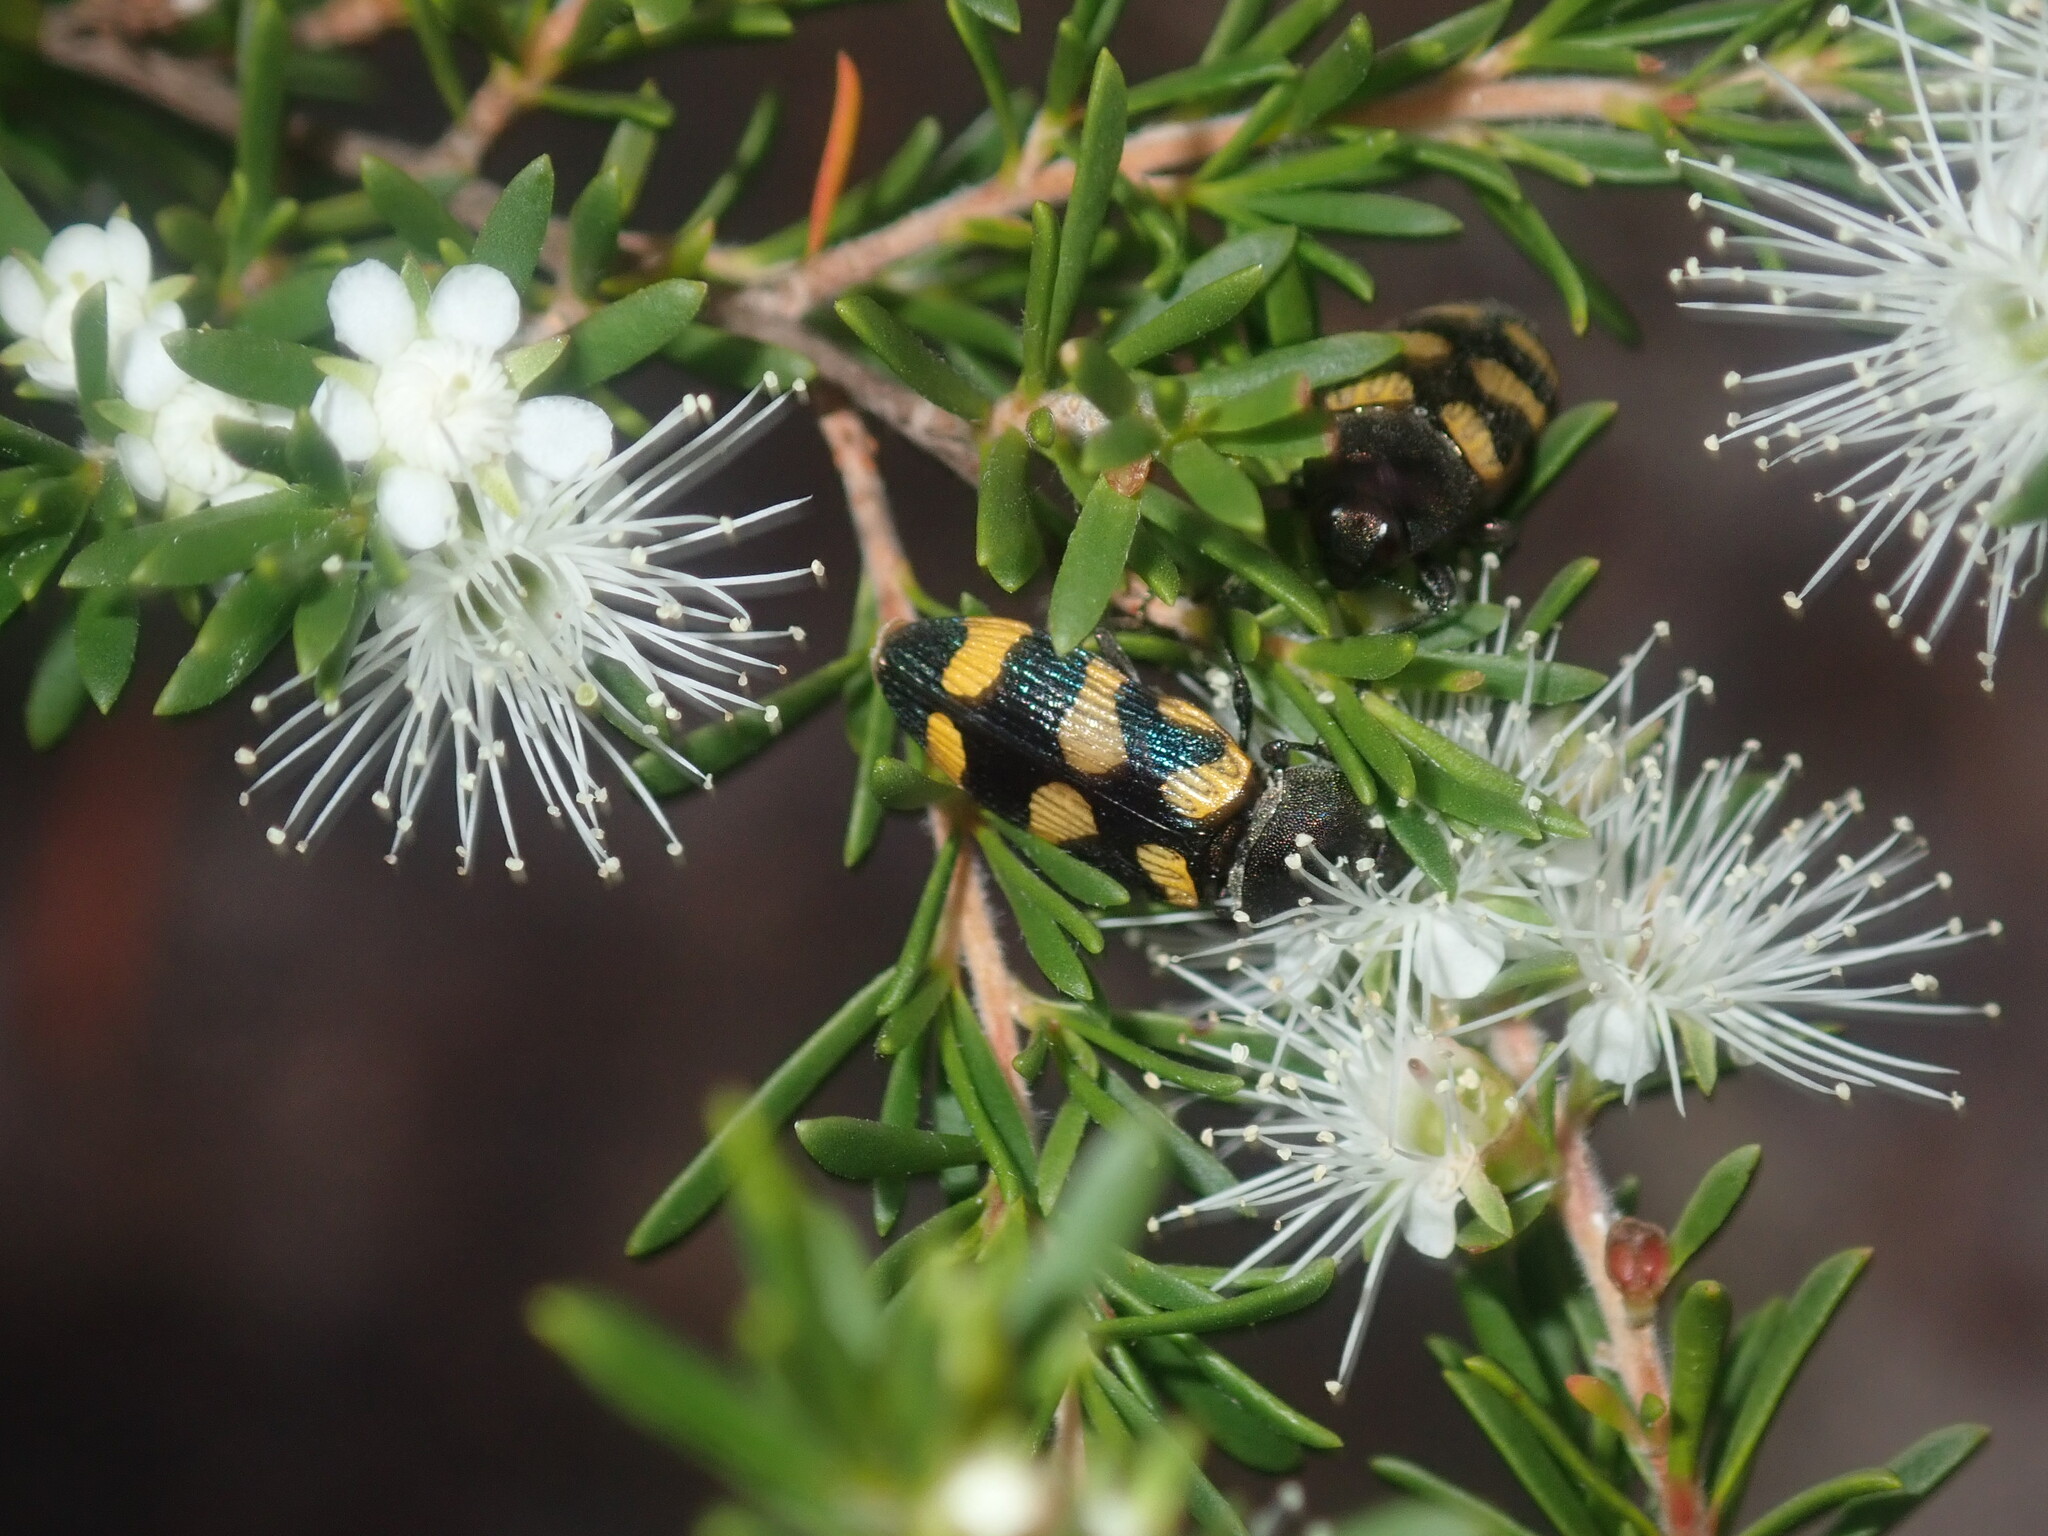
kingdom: Animalia
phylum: Arthropoda
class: Insecta
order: Coleoptera
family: Buprestidae
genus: Castiarina
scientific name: Castiarina inconspicua
